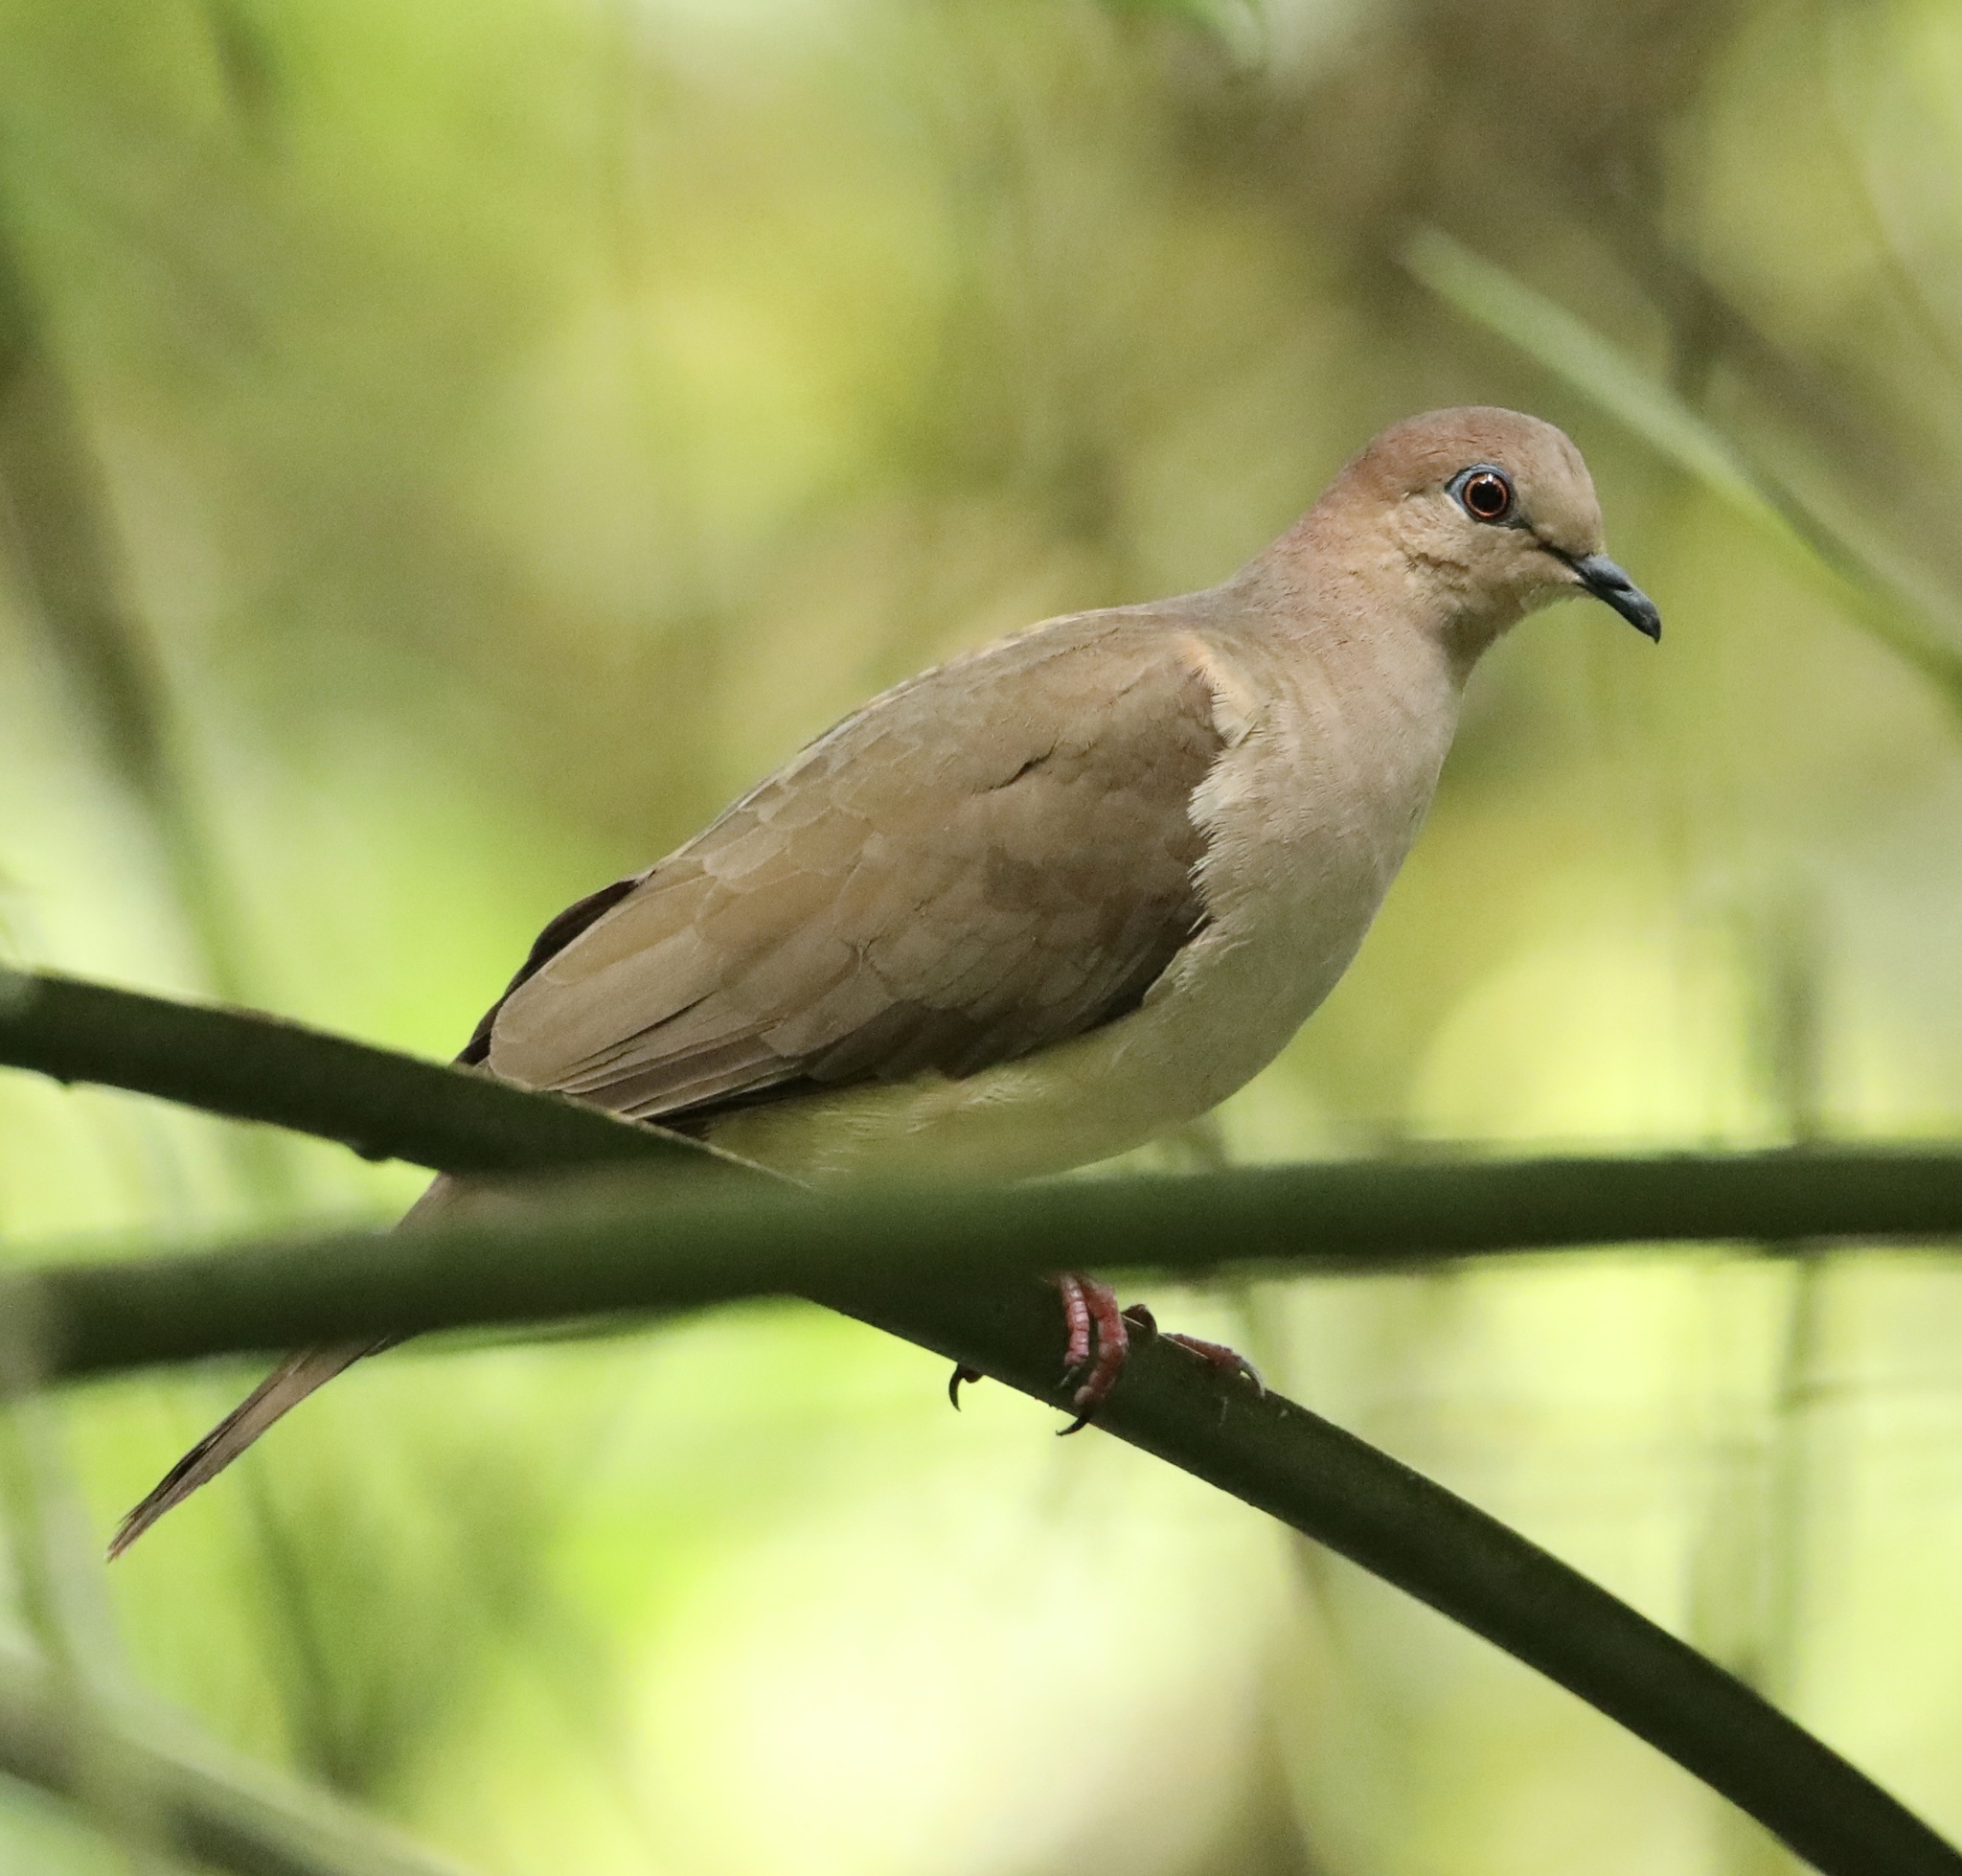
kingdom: Animalia
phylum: Chordata
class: Aves
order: Columbiformes
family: Columbidae
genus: Leptotila
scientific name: Leptotila verreauxi
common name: White-tipped dove
